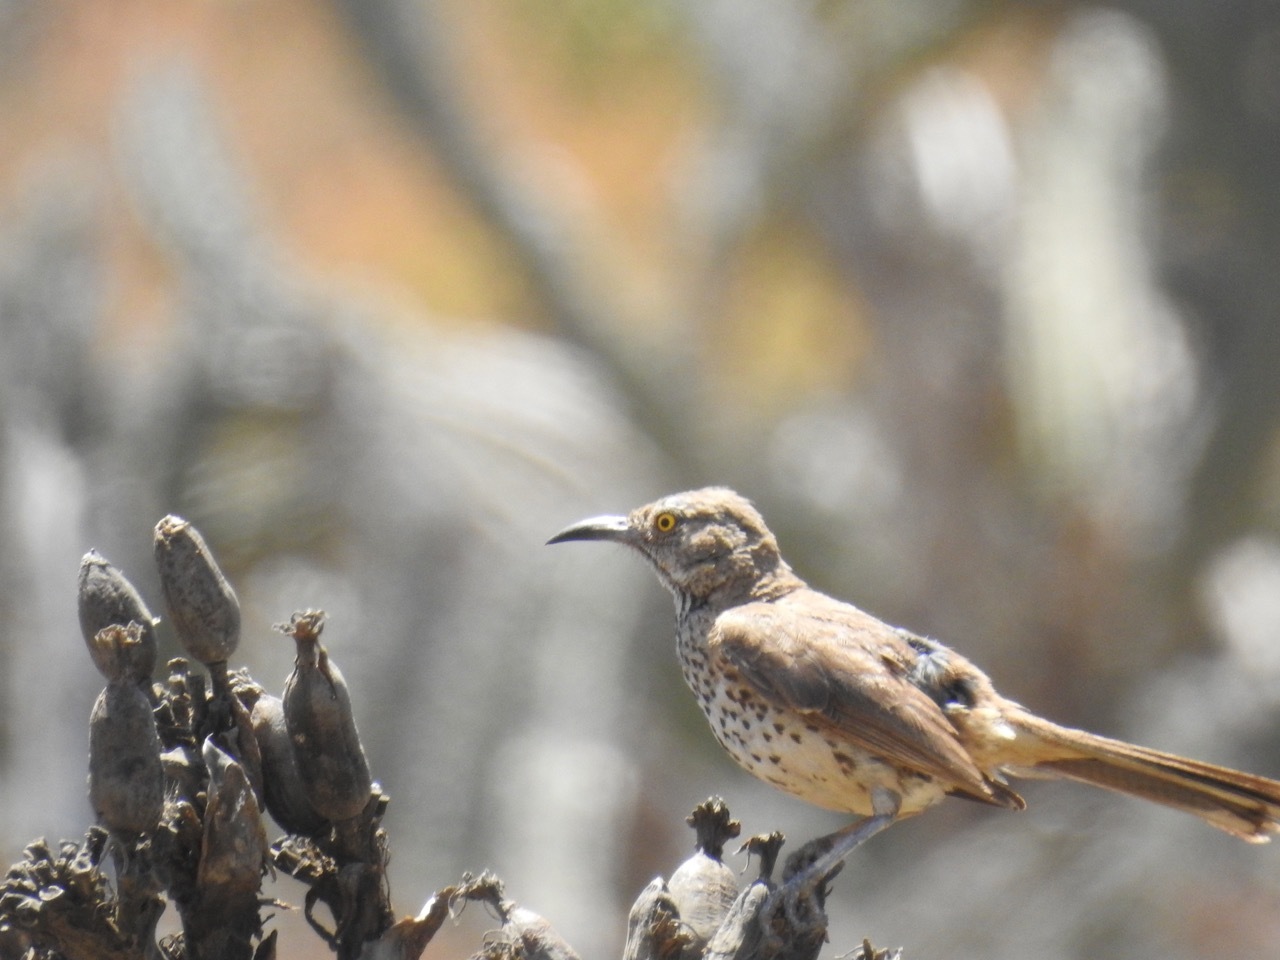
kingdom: Animalia
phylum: Chordata
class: Aves
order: Passeriformes
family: Mimidae
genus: Toxostoma
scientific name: Toxostoma cinereum
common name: Gray thrasher
